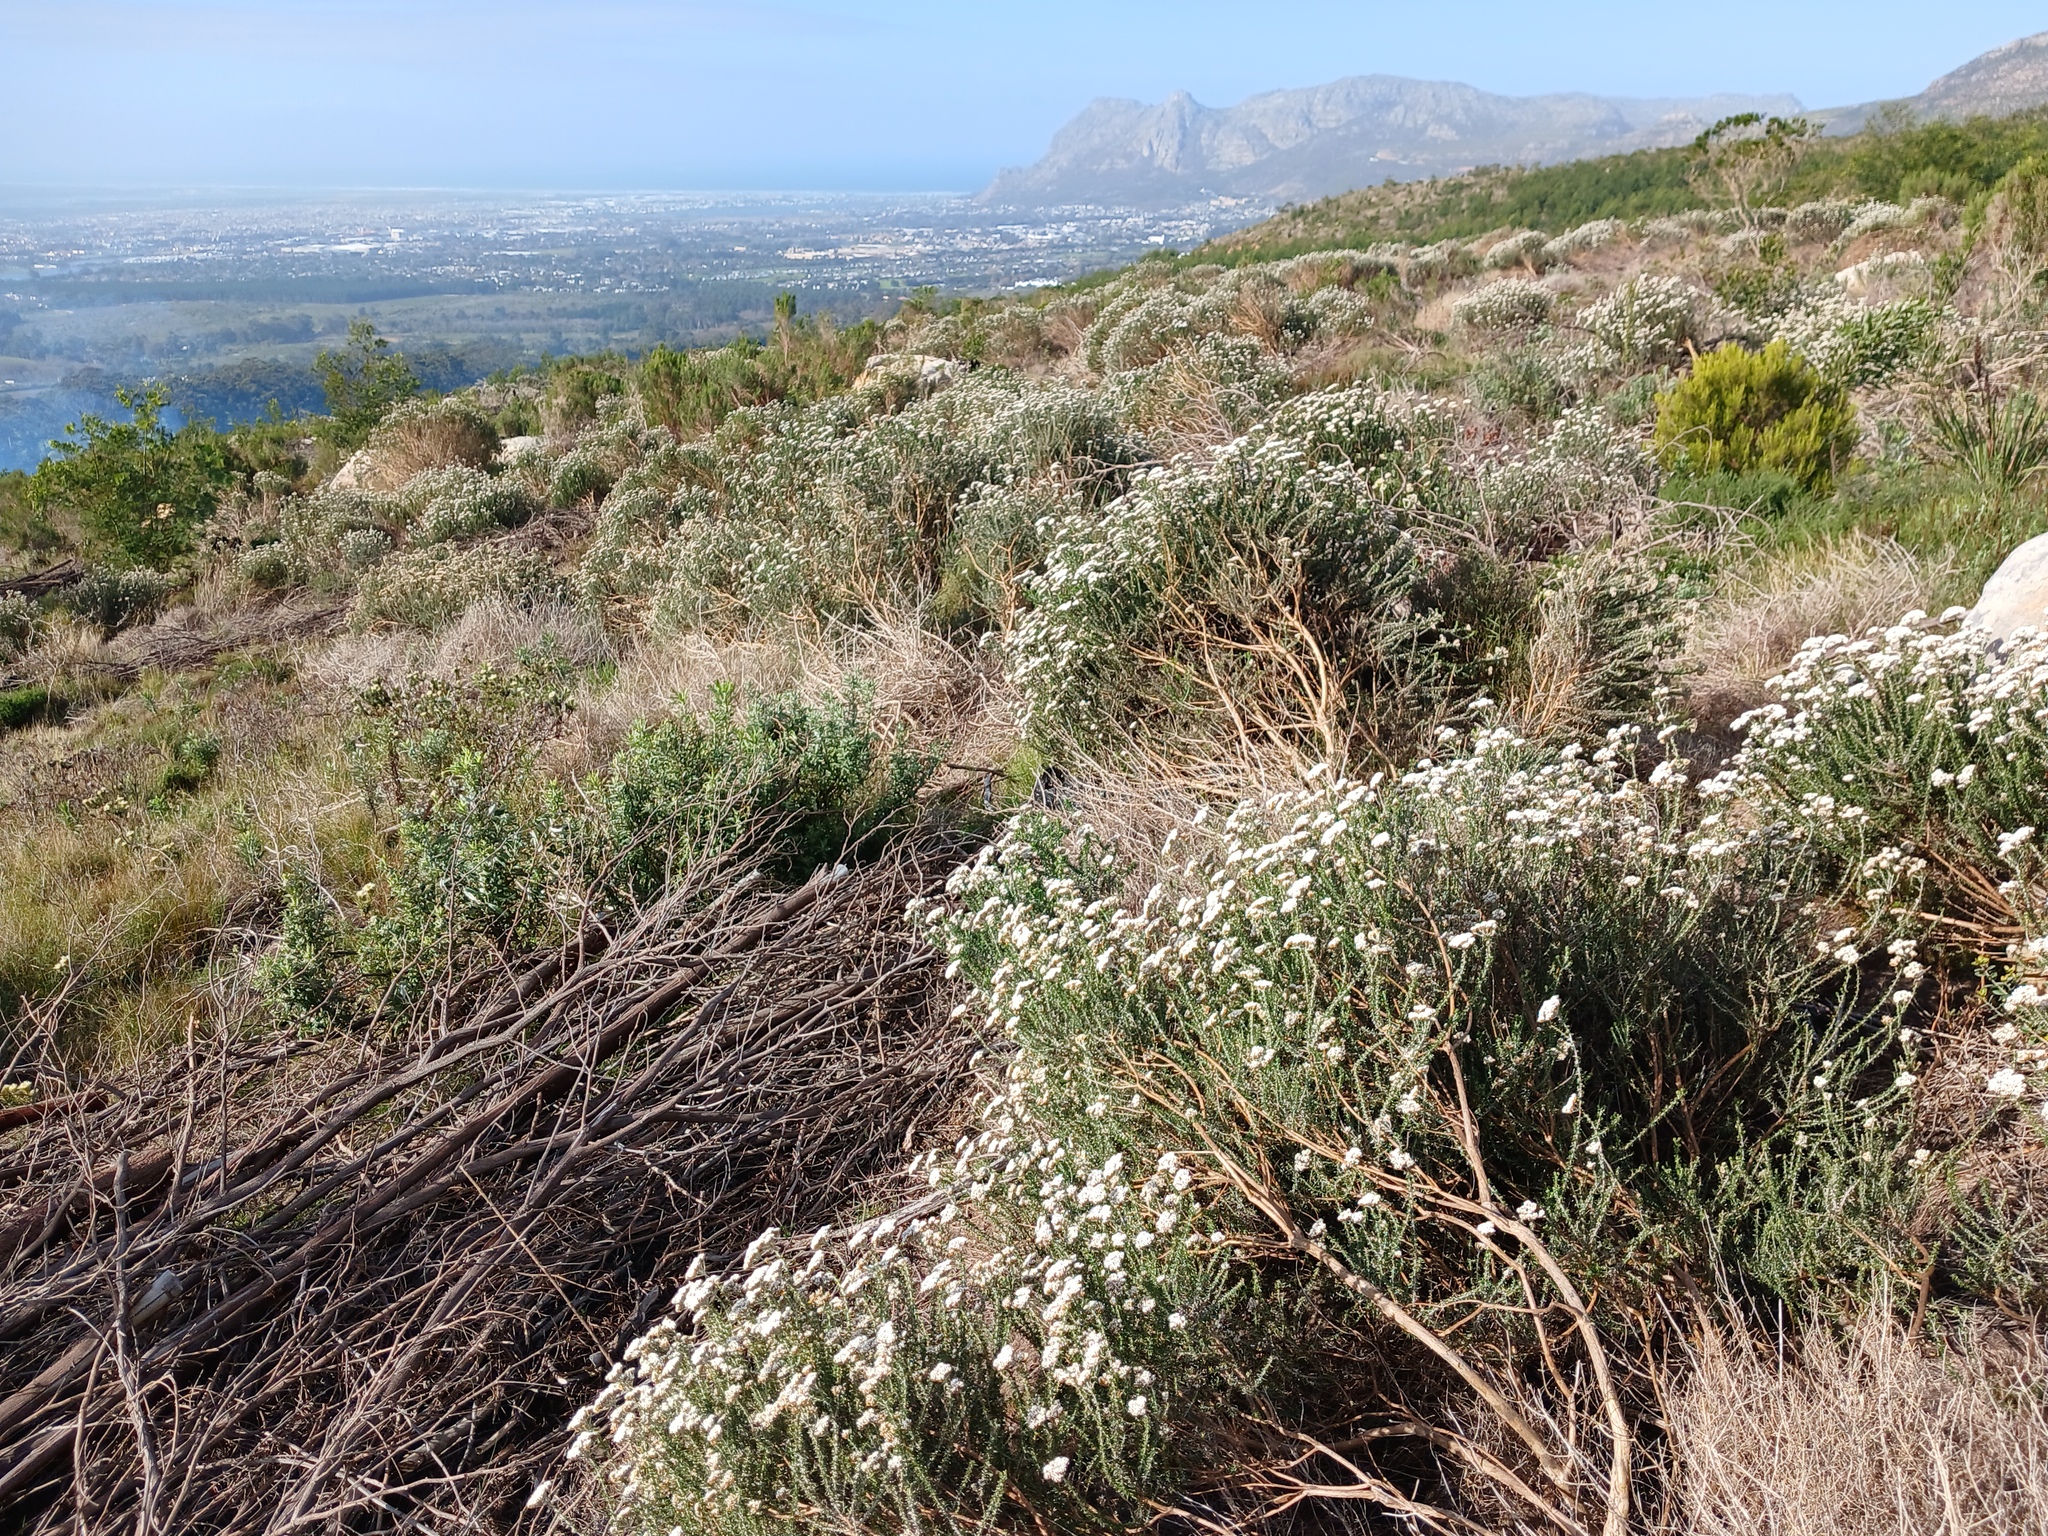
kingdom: Plantae
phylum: Tracheophyta
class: Magnoliopsida
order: Asterales
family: Asteraceae
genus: Metalasia
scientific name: Metalasia densa
